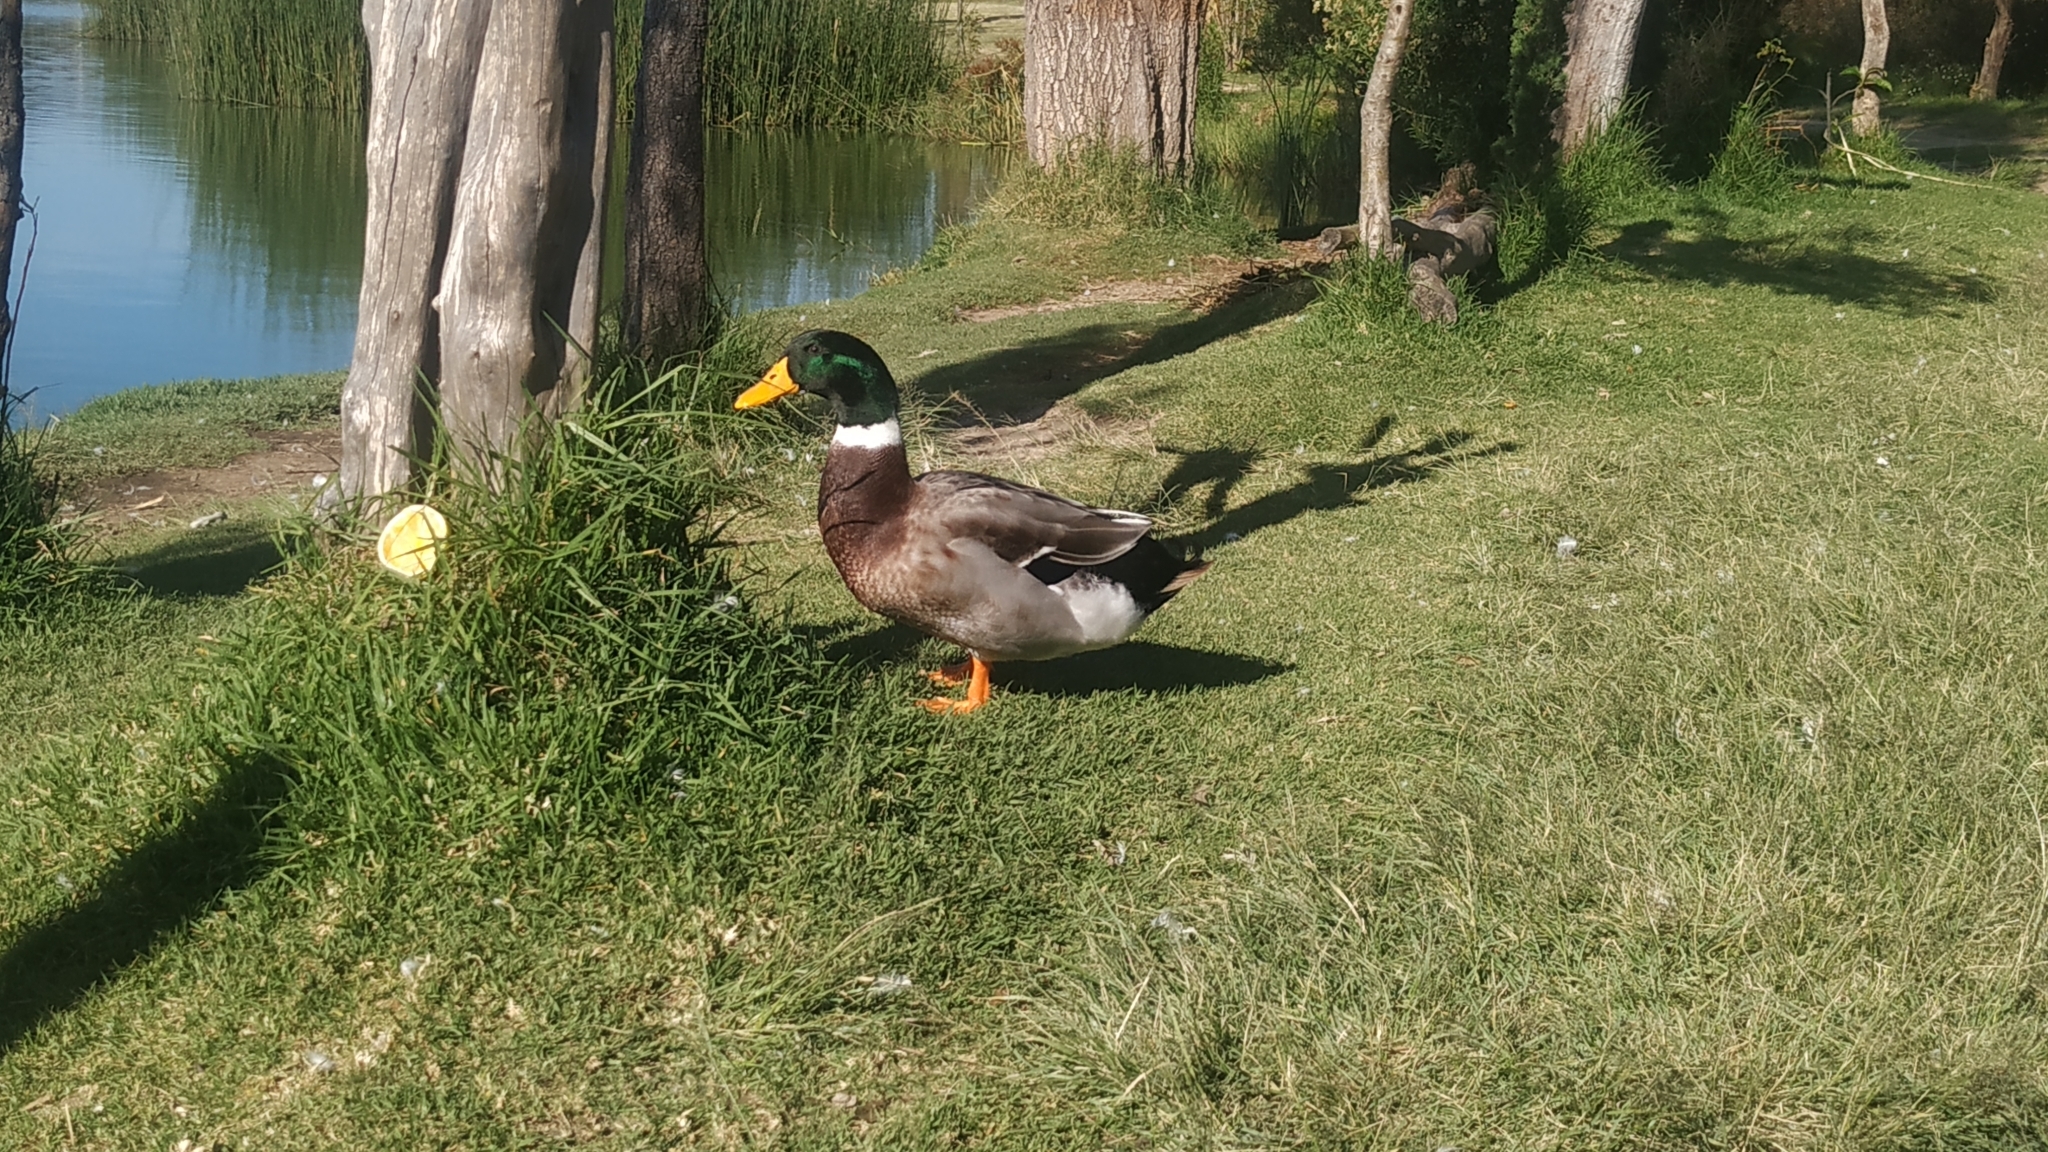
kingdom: Animalia
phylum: Chordata
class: Aves
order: Anseriformes
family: Anatidae
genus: Anas
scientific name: Anas platyrhynchos
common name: Mallard
